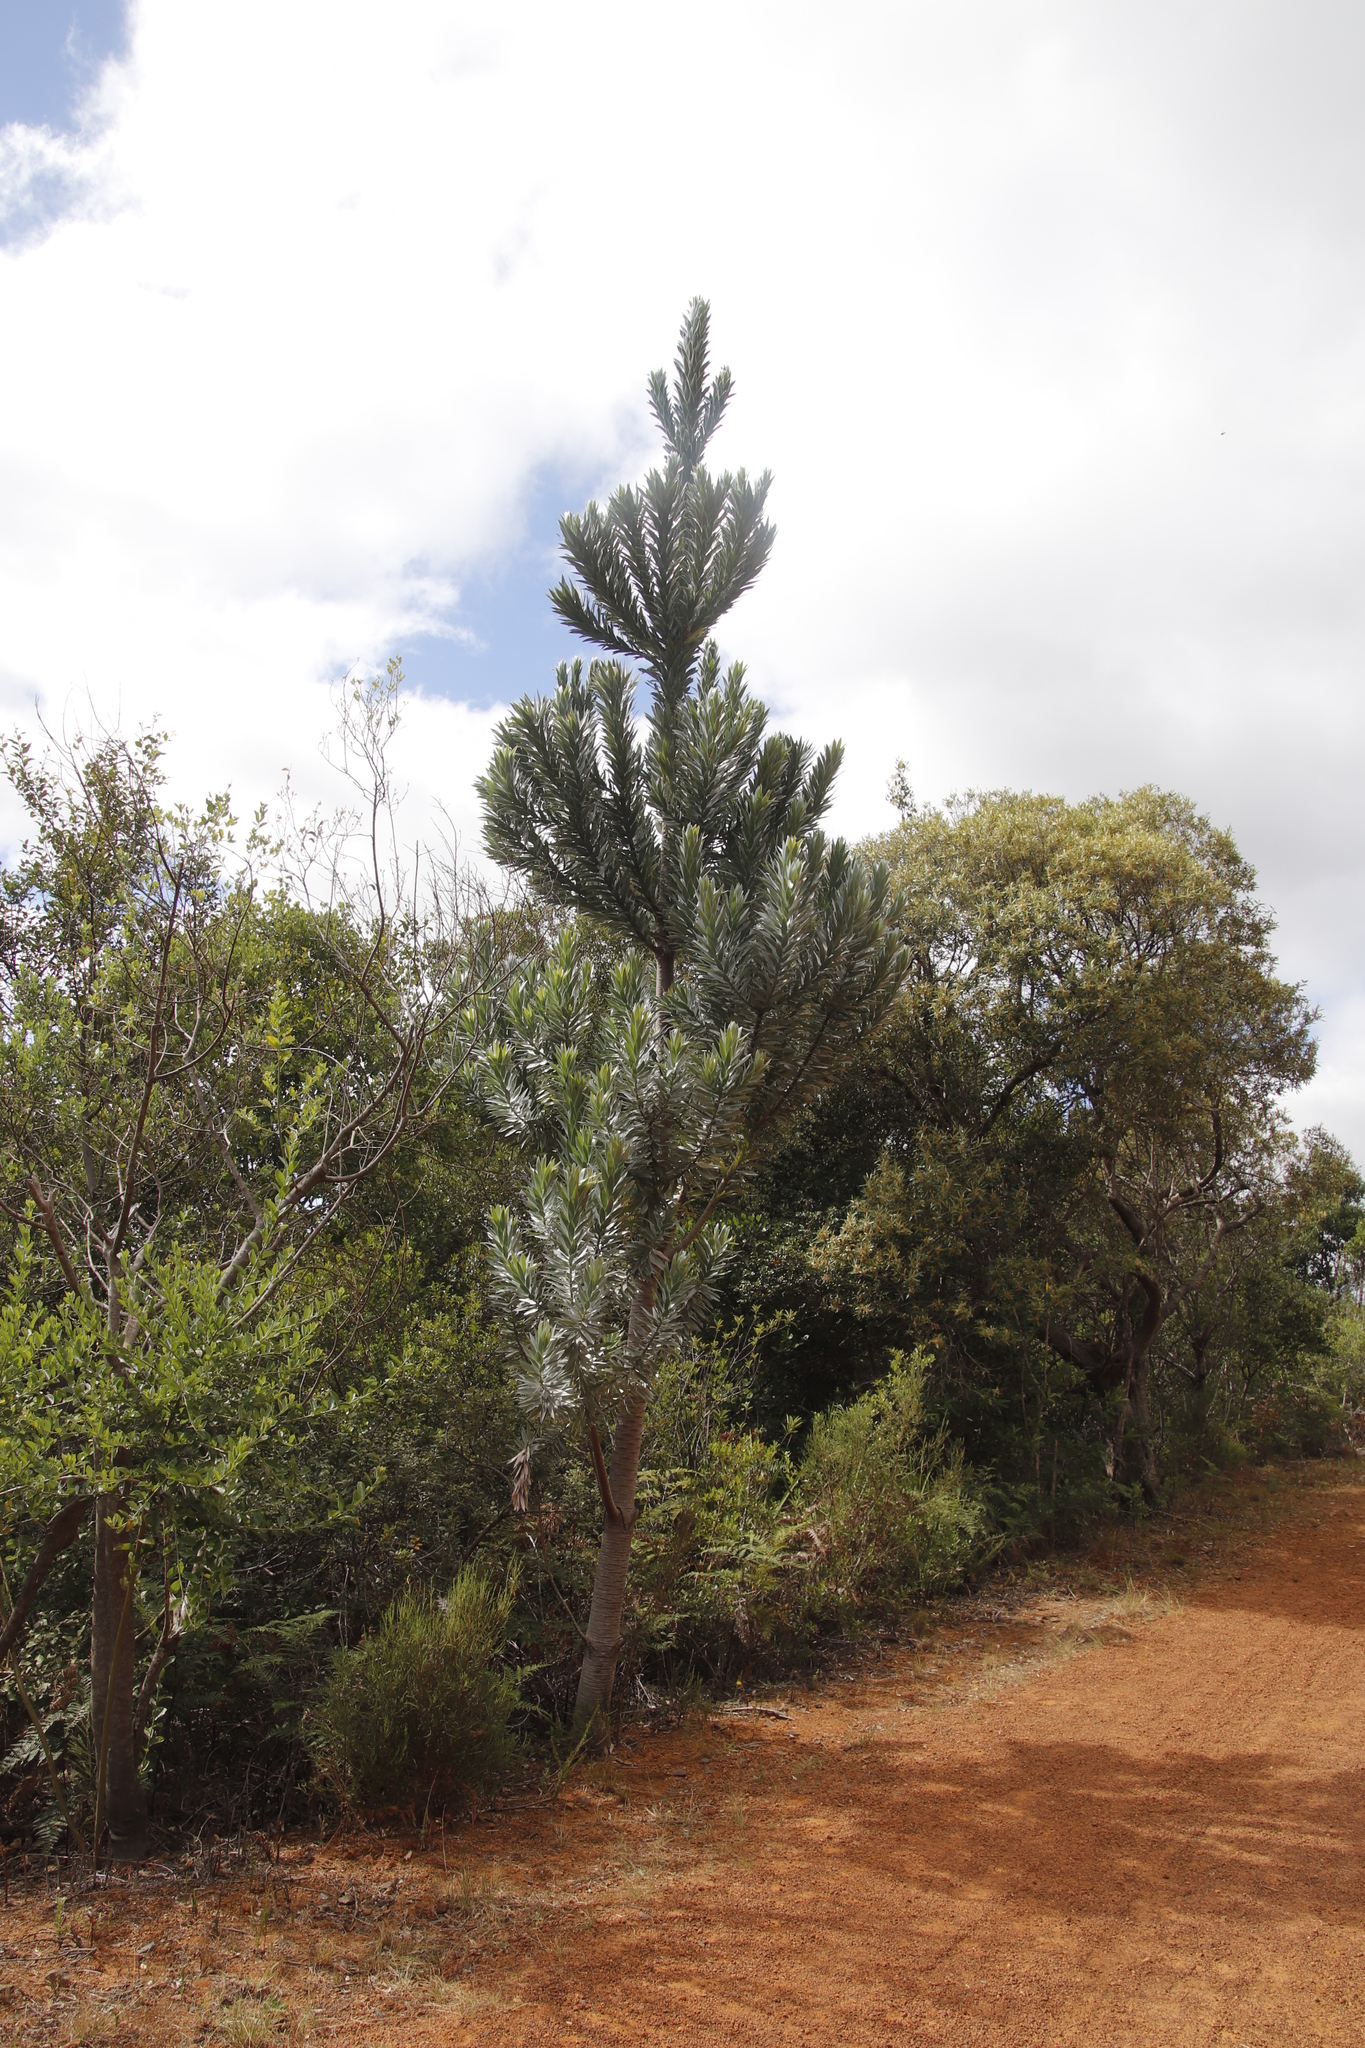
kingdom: Plantae
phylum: Tracheophyta
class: Magnoliopsida
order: Proteales
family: Proteaceae
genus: Leucadendron
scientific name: Leucadendron argenteum
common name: Cape silver tree
